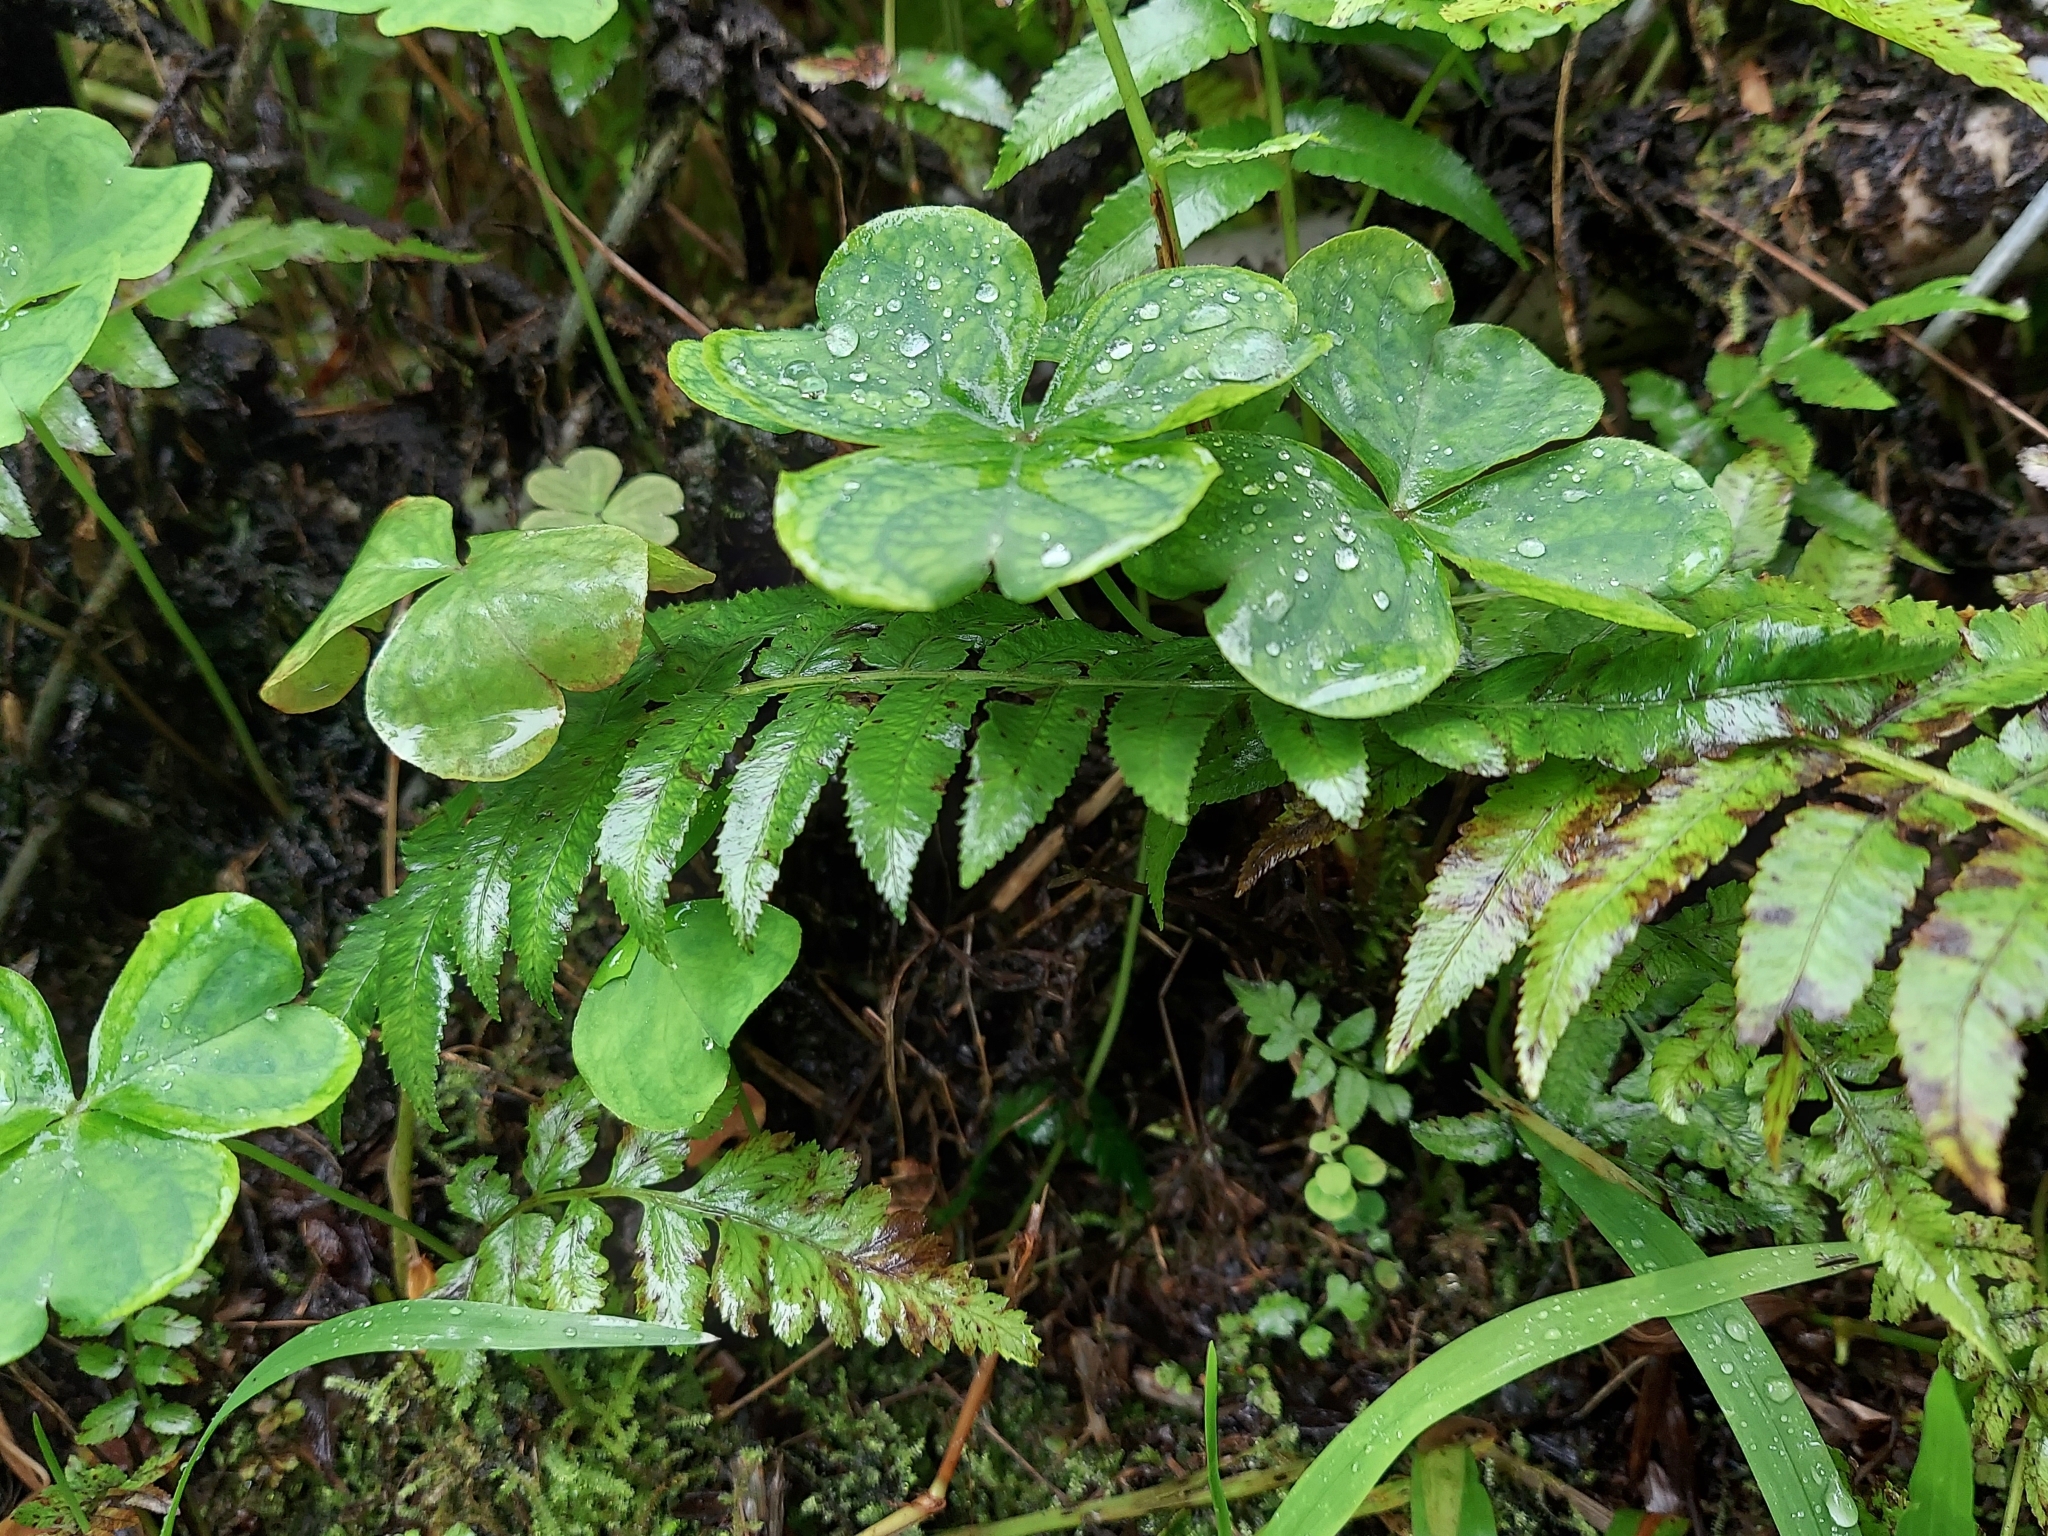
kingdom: Plantae
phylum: Tracheophyta
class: Magnoliopsida
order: Oxalidales
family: Oxalidaceae
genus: Oxalis
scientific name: Oxalis debilis
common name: Large-flowered pink-sorrel
